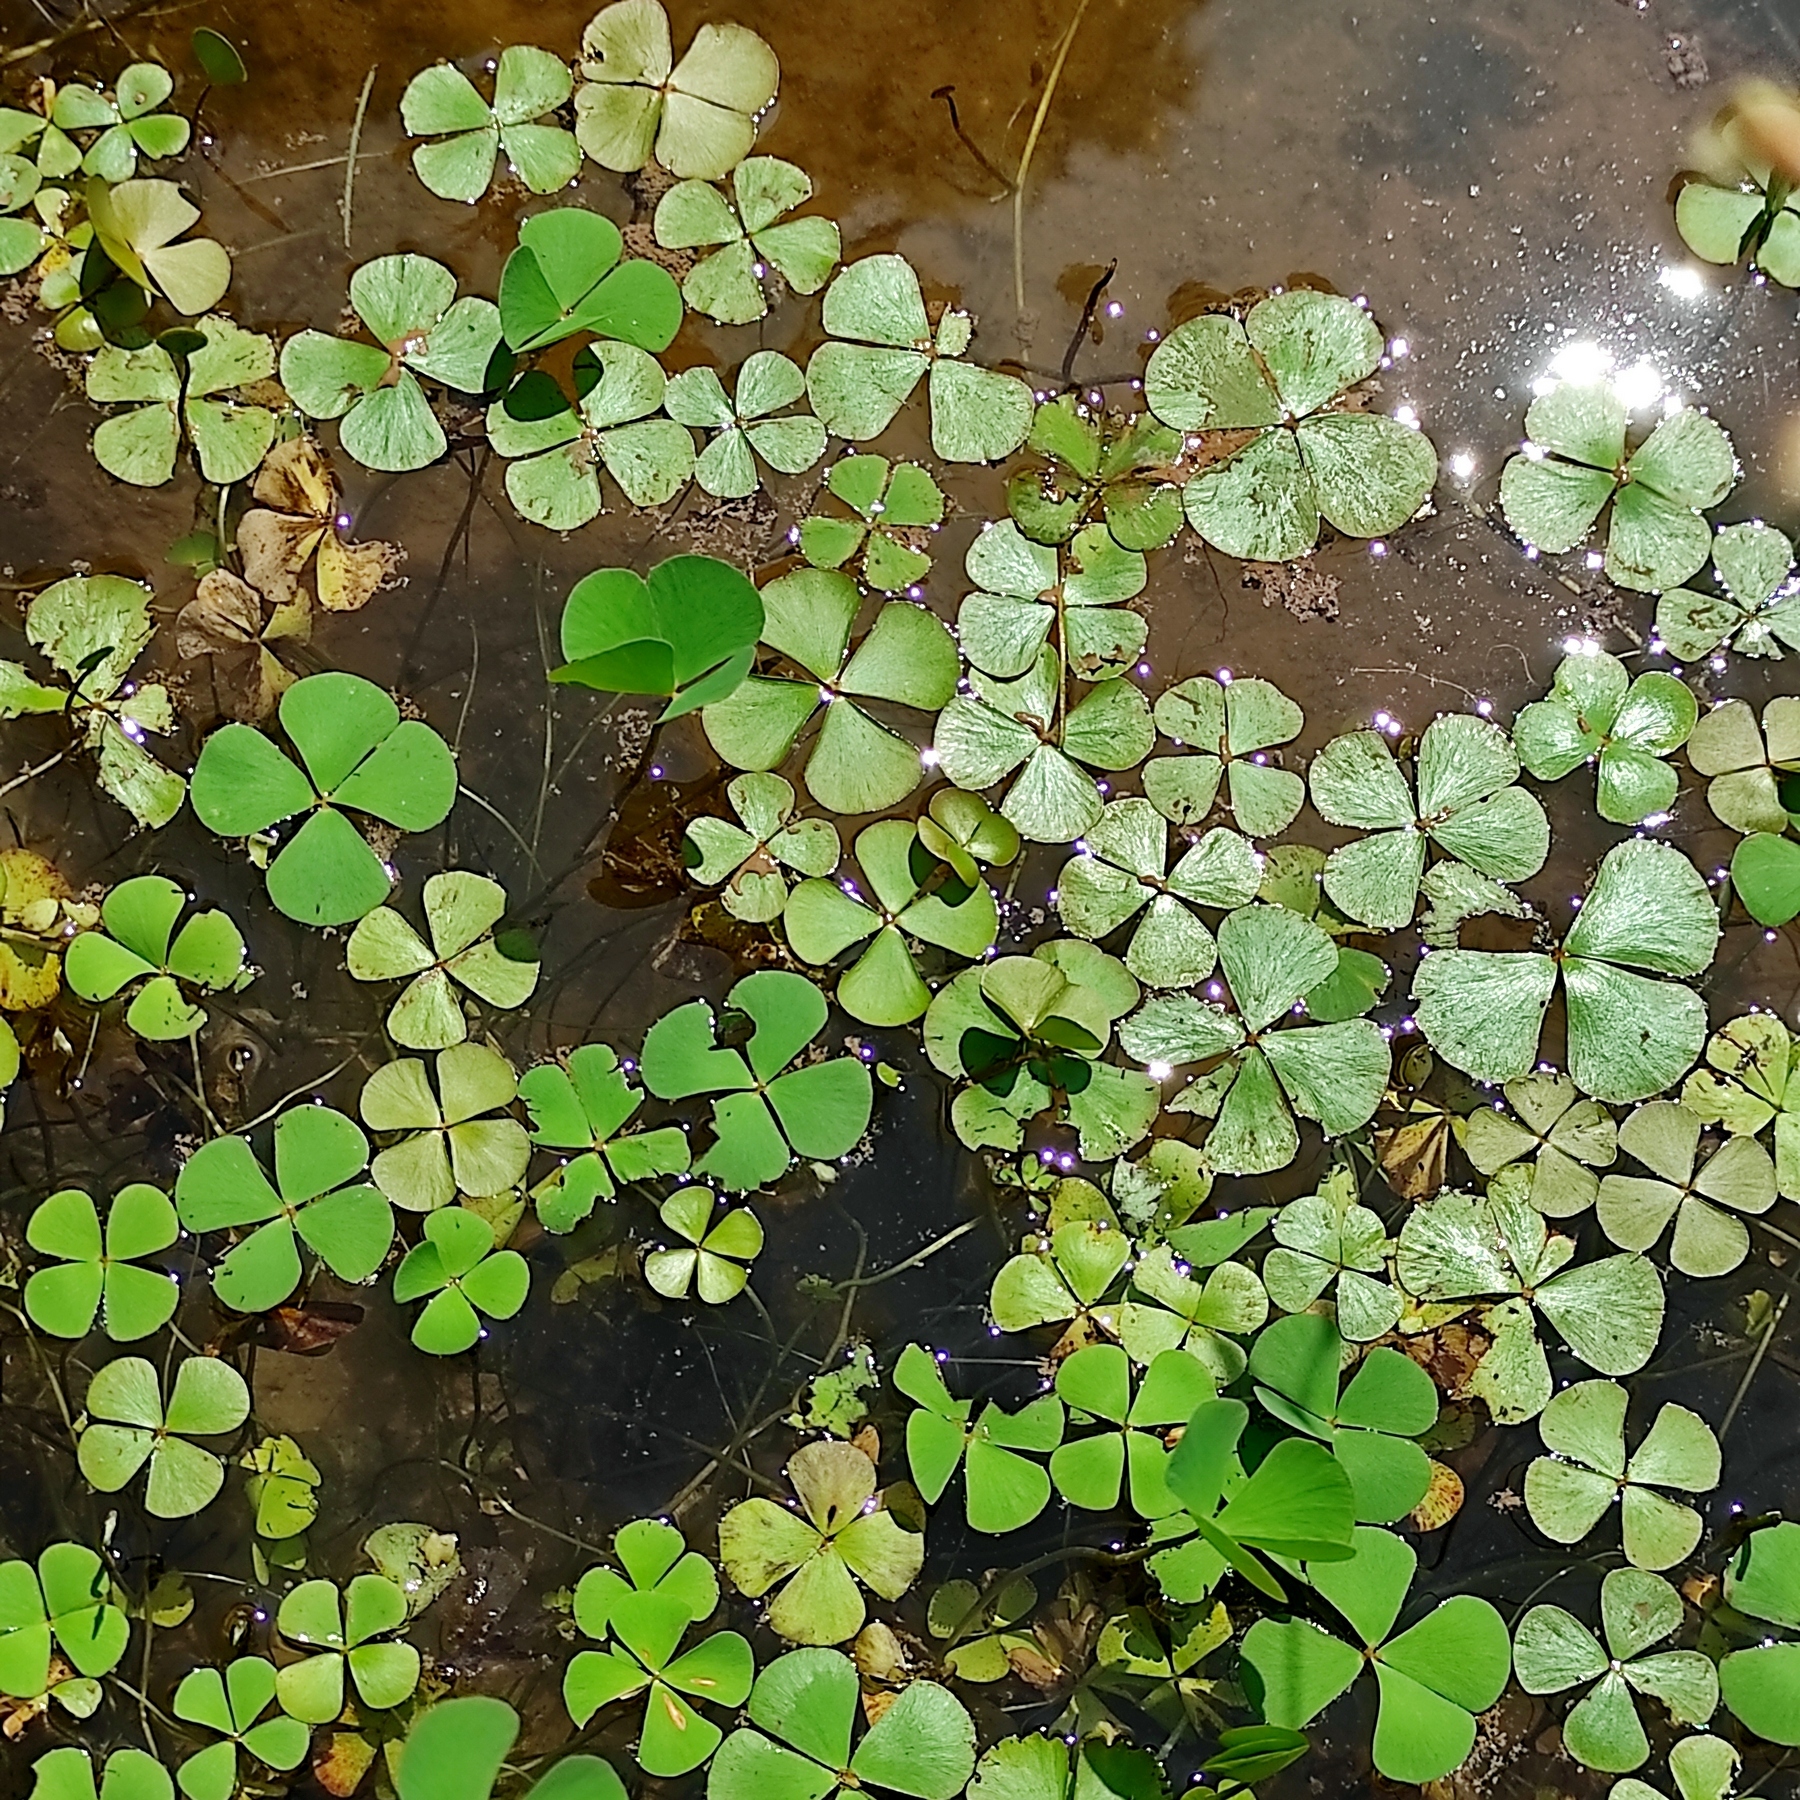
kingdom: Plantae
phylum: Tracheophyta
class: Polypodiopsida
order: Salviniales
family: Marsileaceae
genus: Marsilea
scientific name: Marsilea crenata
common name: False pepperwort
